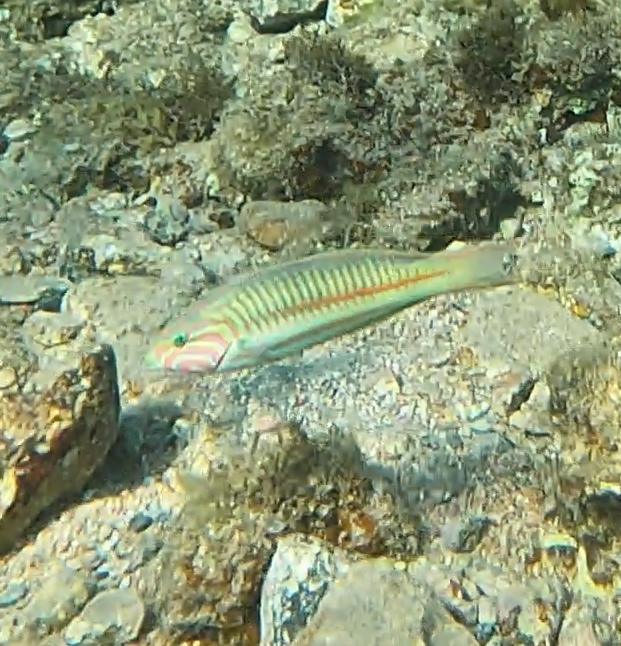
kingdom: Animalia
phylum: Chordata
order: Perciformes
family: Labridae
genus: Thalassoma
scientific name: Thalassoma rueppellii
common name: Klunzinger's wrasse
